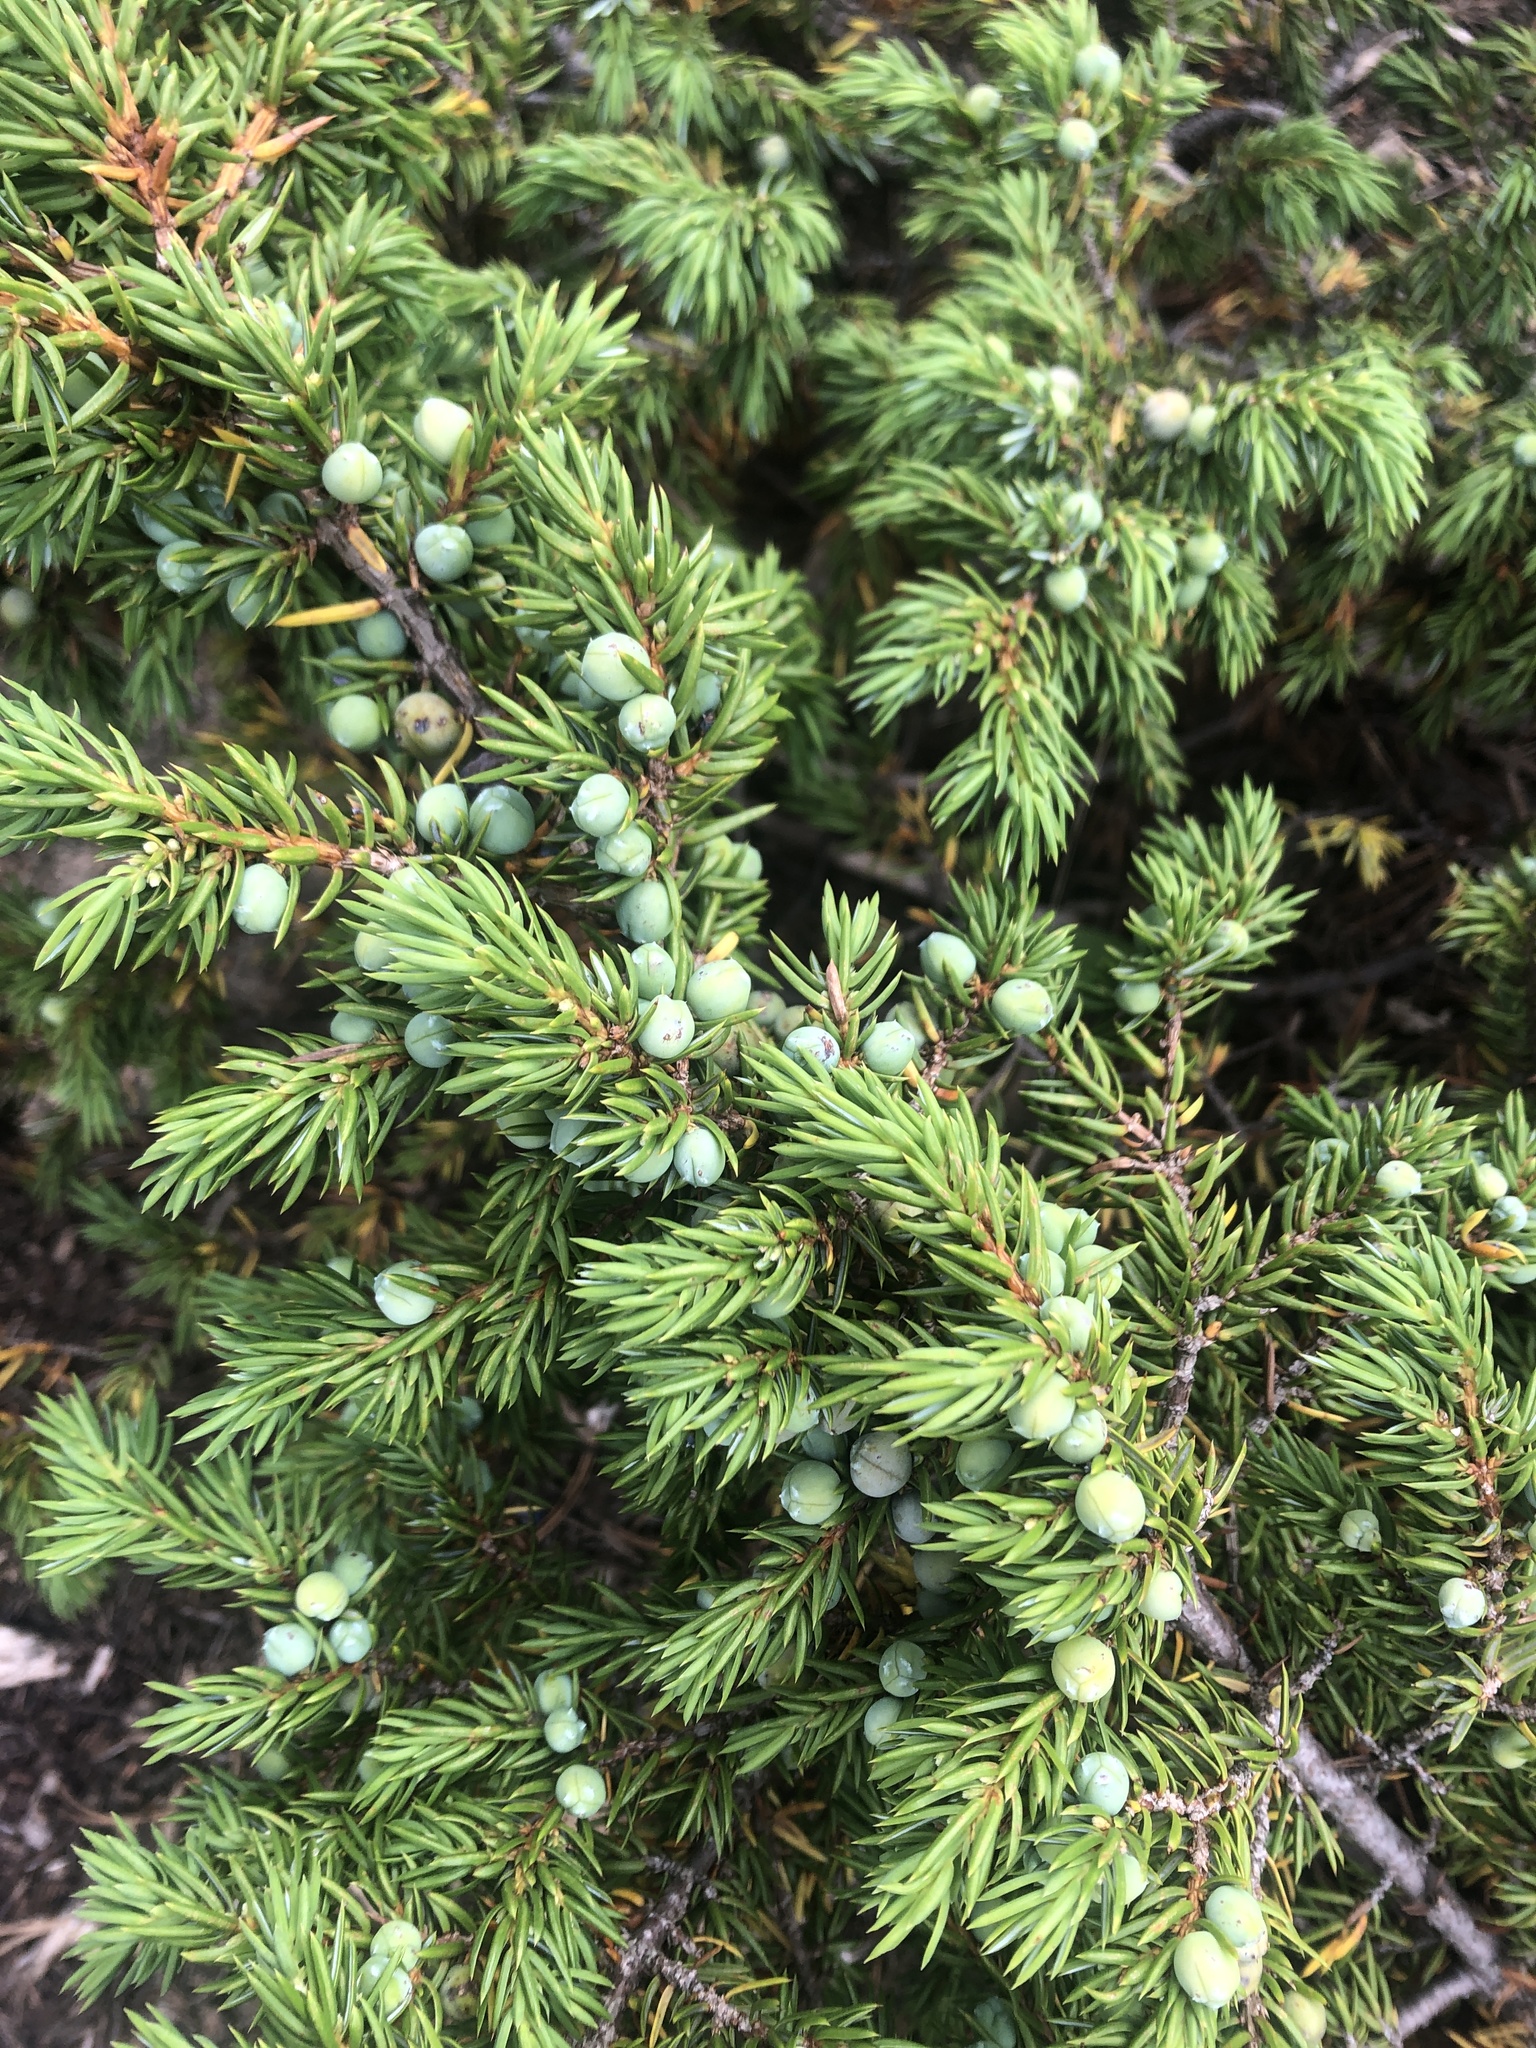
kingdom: Plantae
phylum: Tracheophyta
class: Pinopsida
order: Pinales
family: Cupressaceae
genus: Juniperus
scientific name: Juniperus communis
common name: Common juniper
